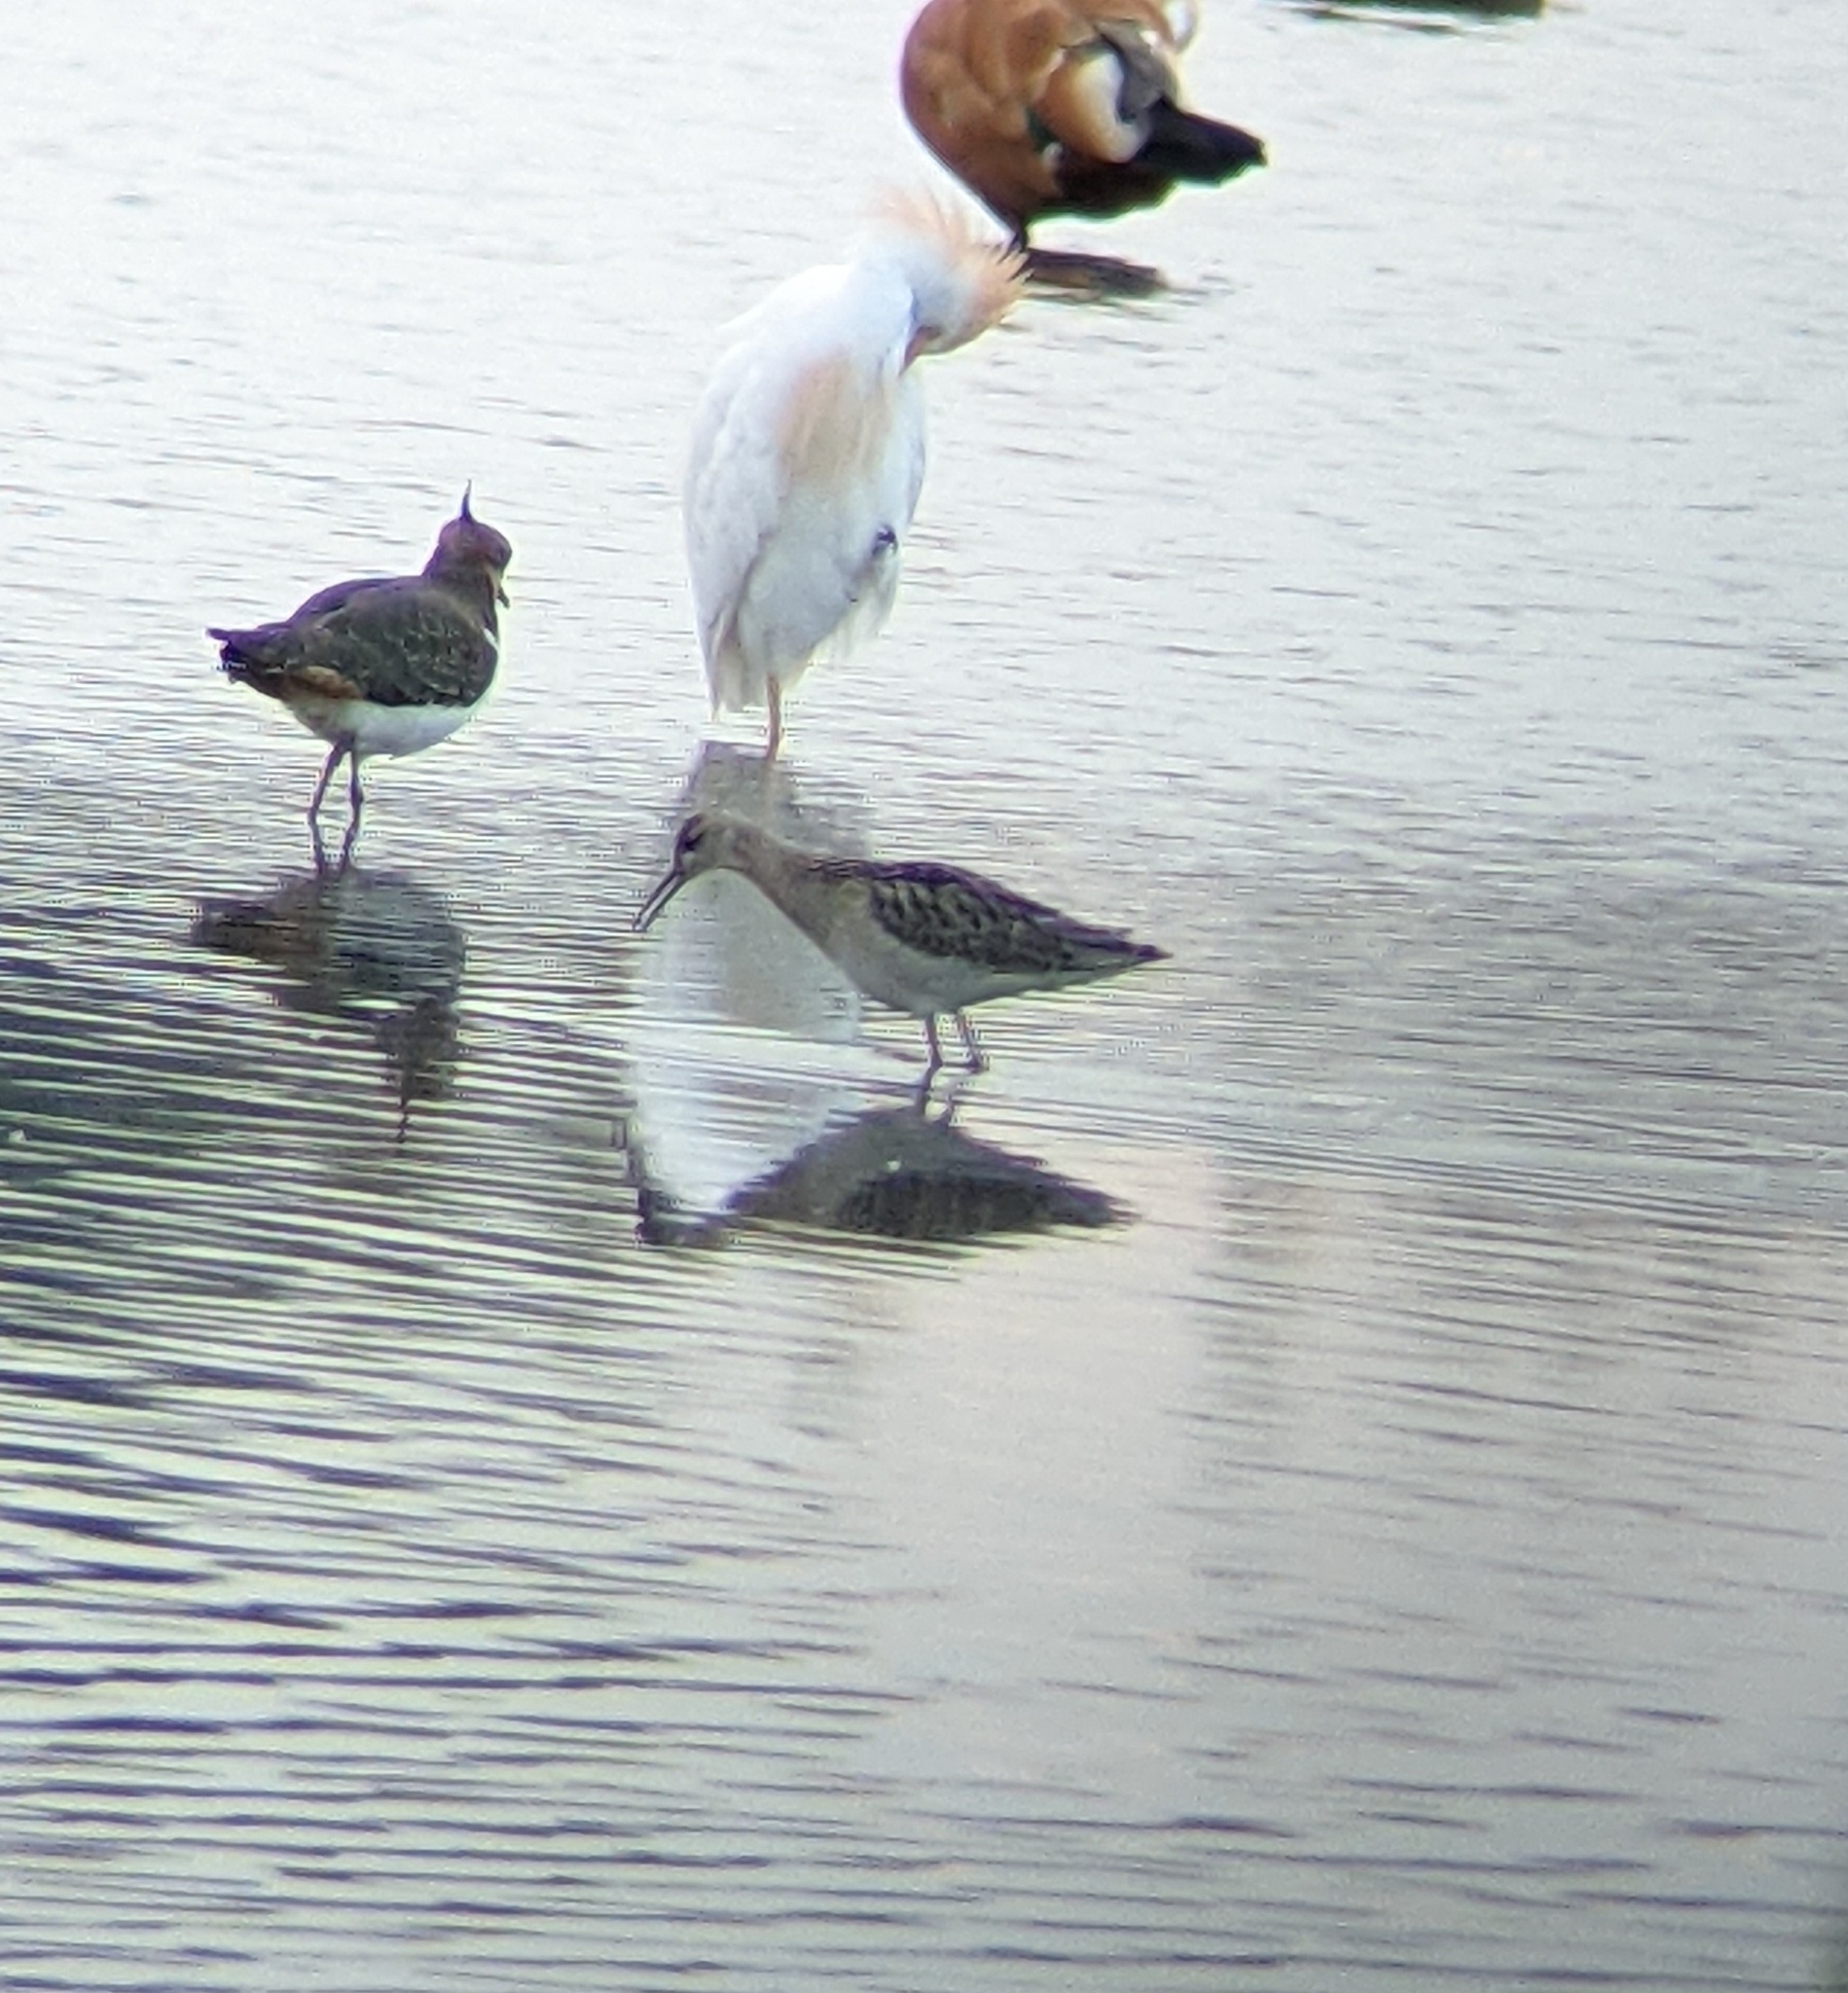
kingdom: Animalia
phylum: Chordata
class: Aves
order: Charadriiformes
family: Scolopacidae
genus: Calidris
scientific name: Calidris pugnax
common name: Ruff
